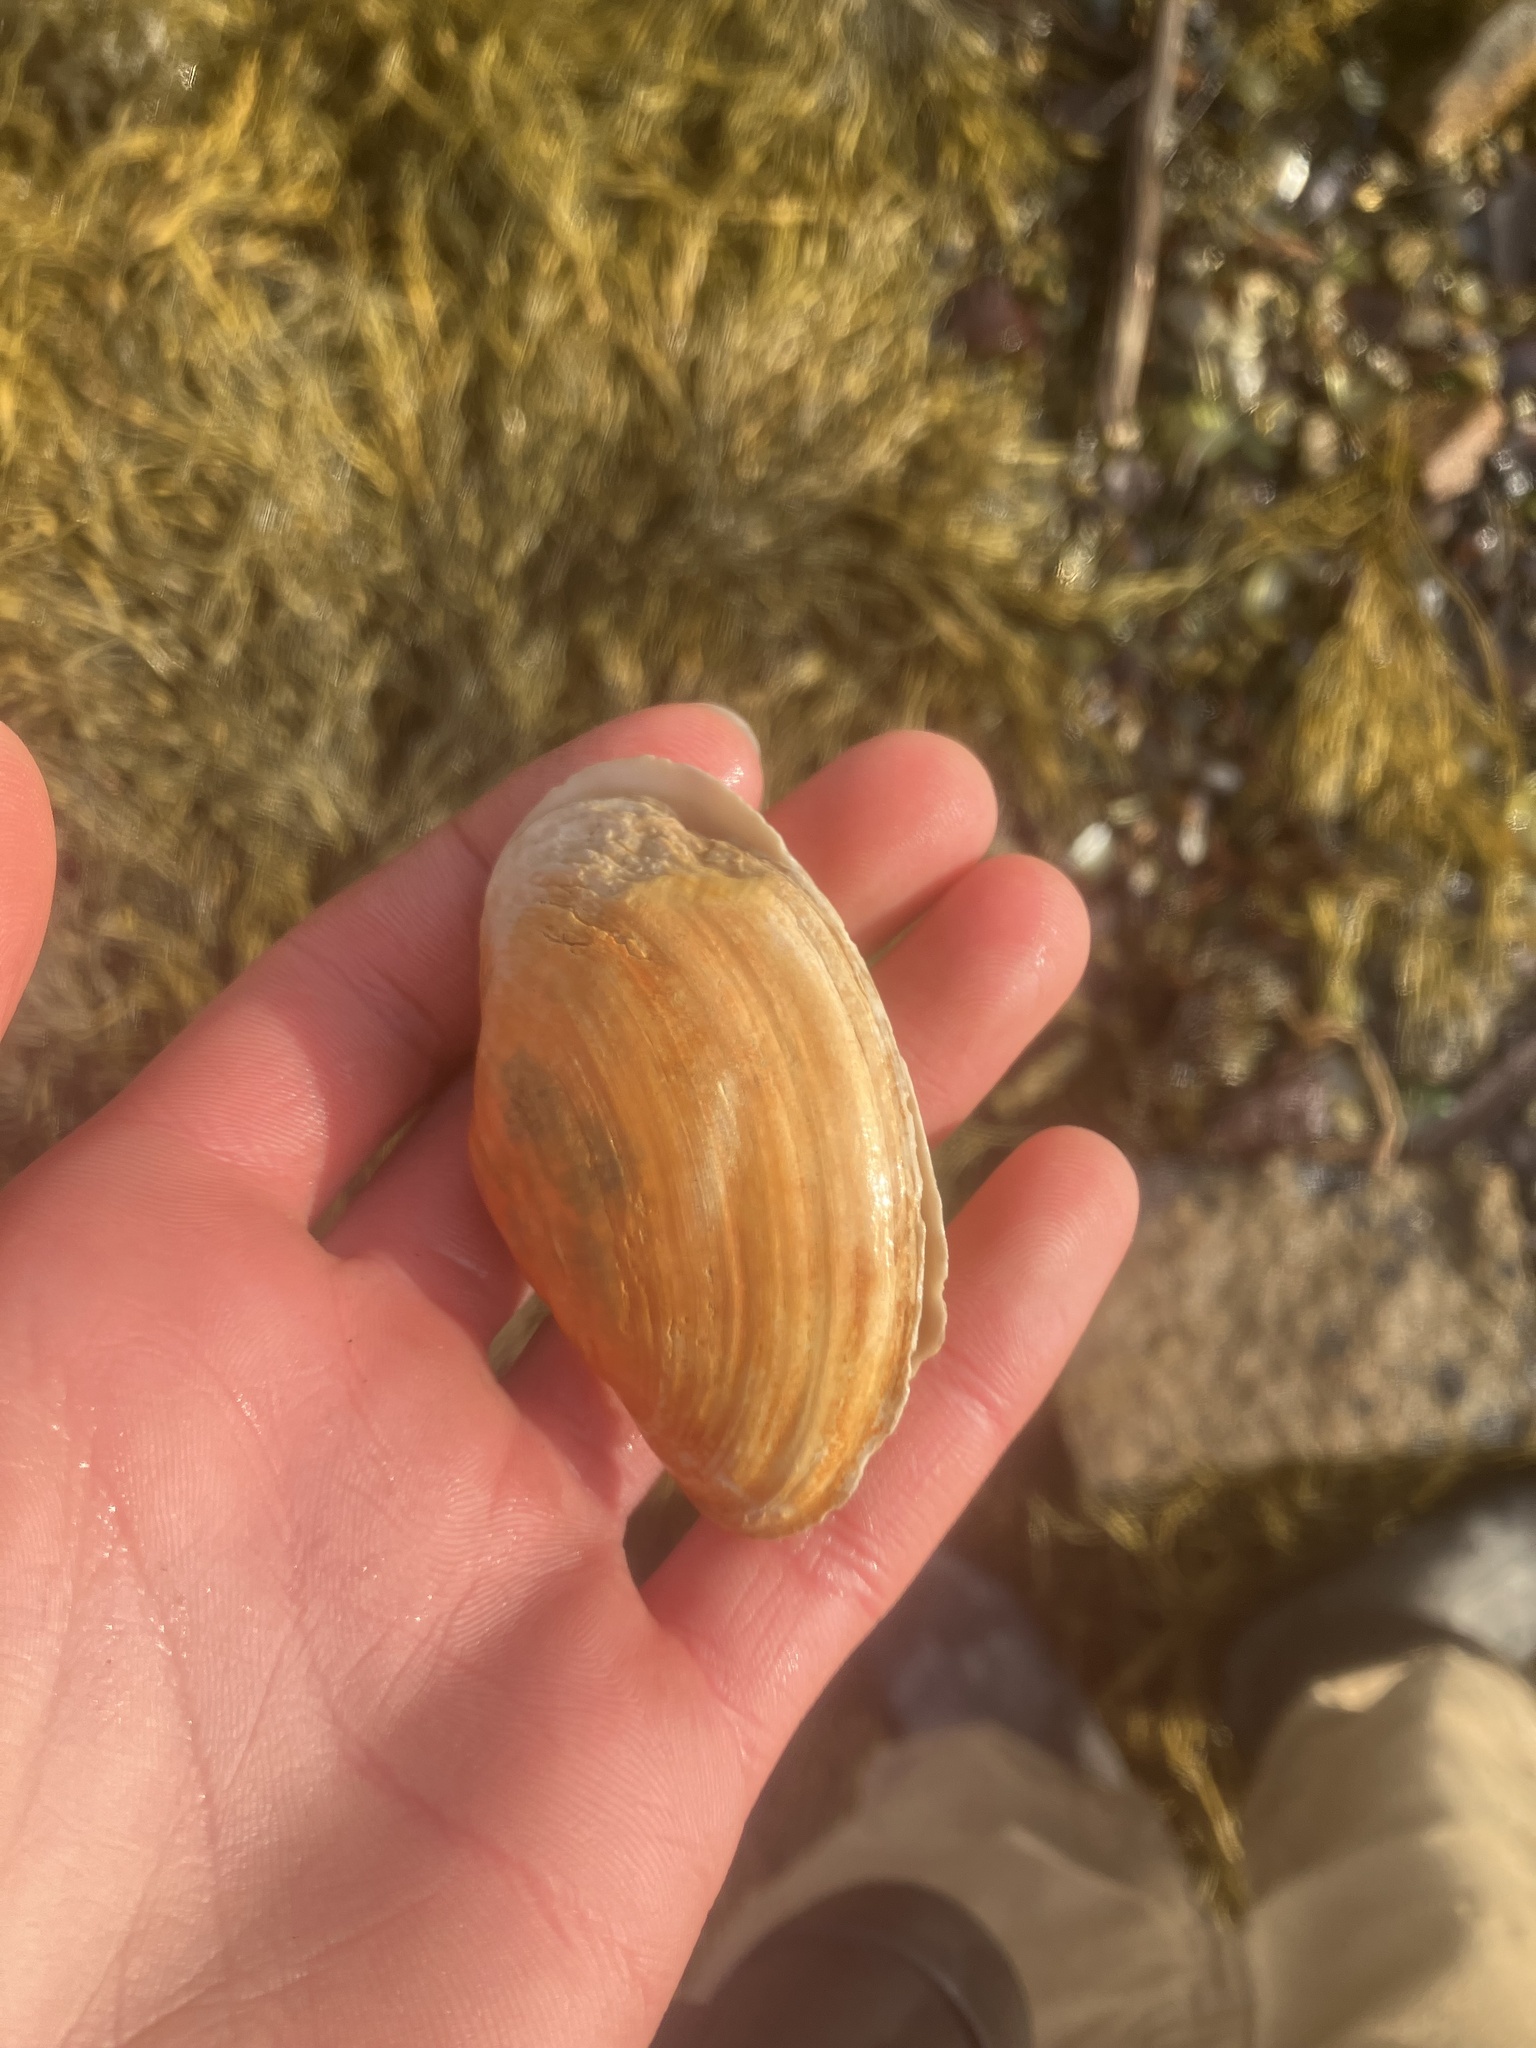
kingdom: Animalia
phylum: Mollusca
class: Bivalvia
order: Myida
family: Myidae
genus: Mya
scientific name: Mya arenaria
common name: Soft-shelled clam
